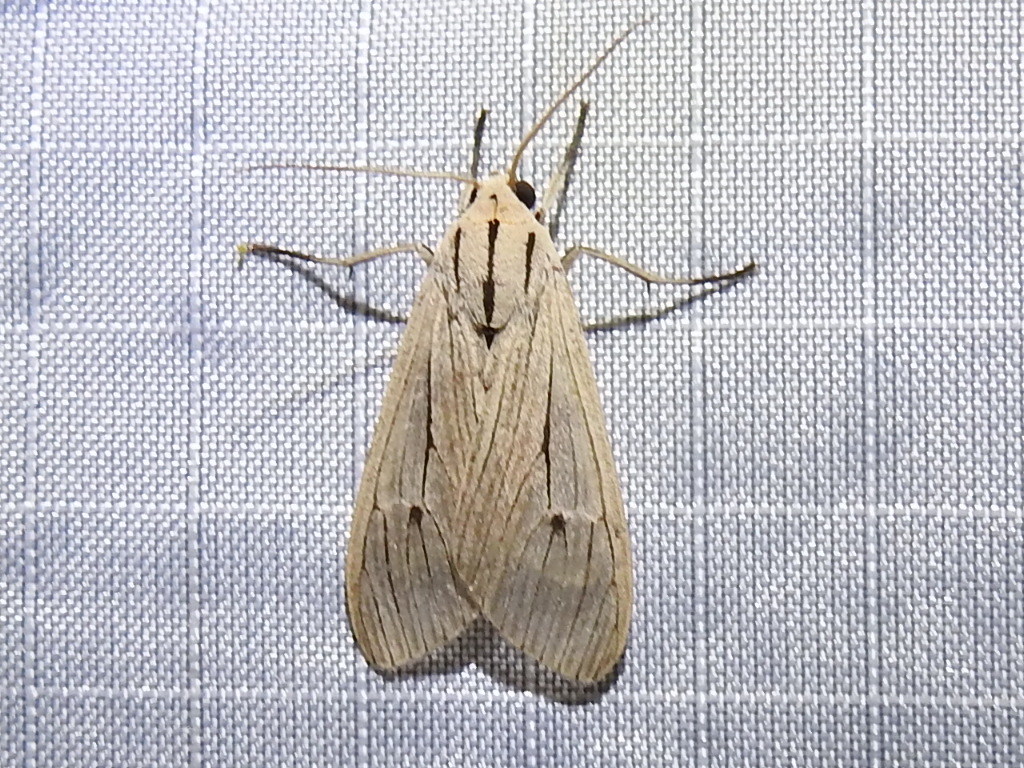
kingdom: Animalia
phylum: Arthropoda
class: Insecta
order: Lepidoptera
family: Erebidae
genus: Arctagyrta
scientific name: Arctagyrta Agaraea semivitrea
